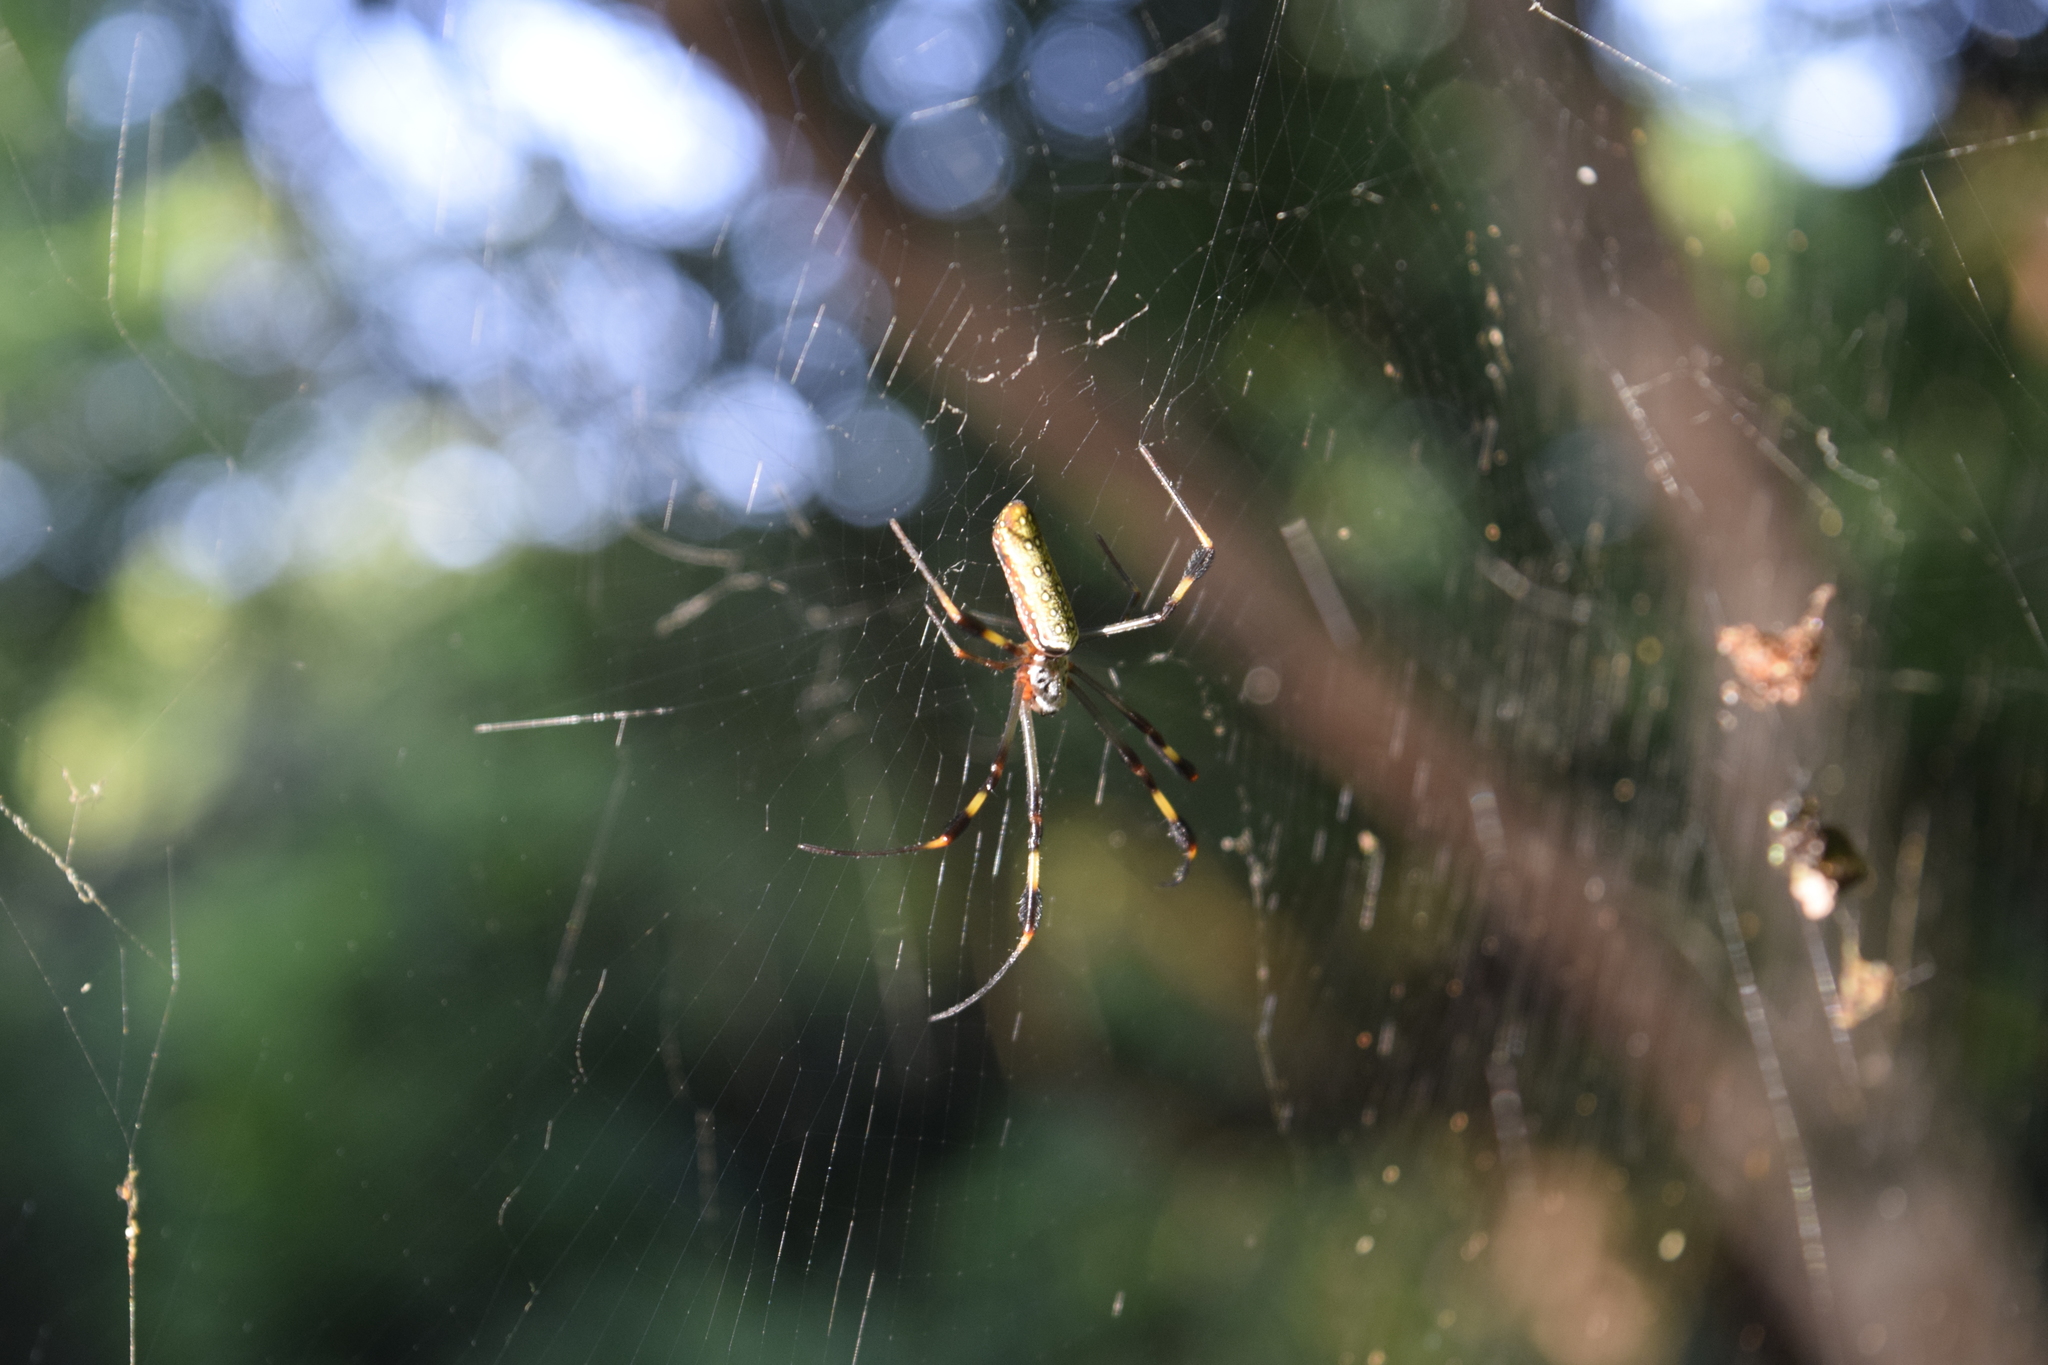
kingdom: Animalia
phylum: Arthropoda
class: Arachnida
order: Araneae
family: Araneidae
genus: Trichonephila
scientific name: Trichonephila clavipes
